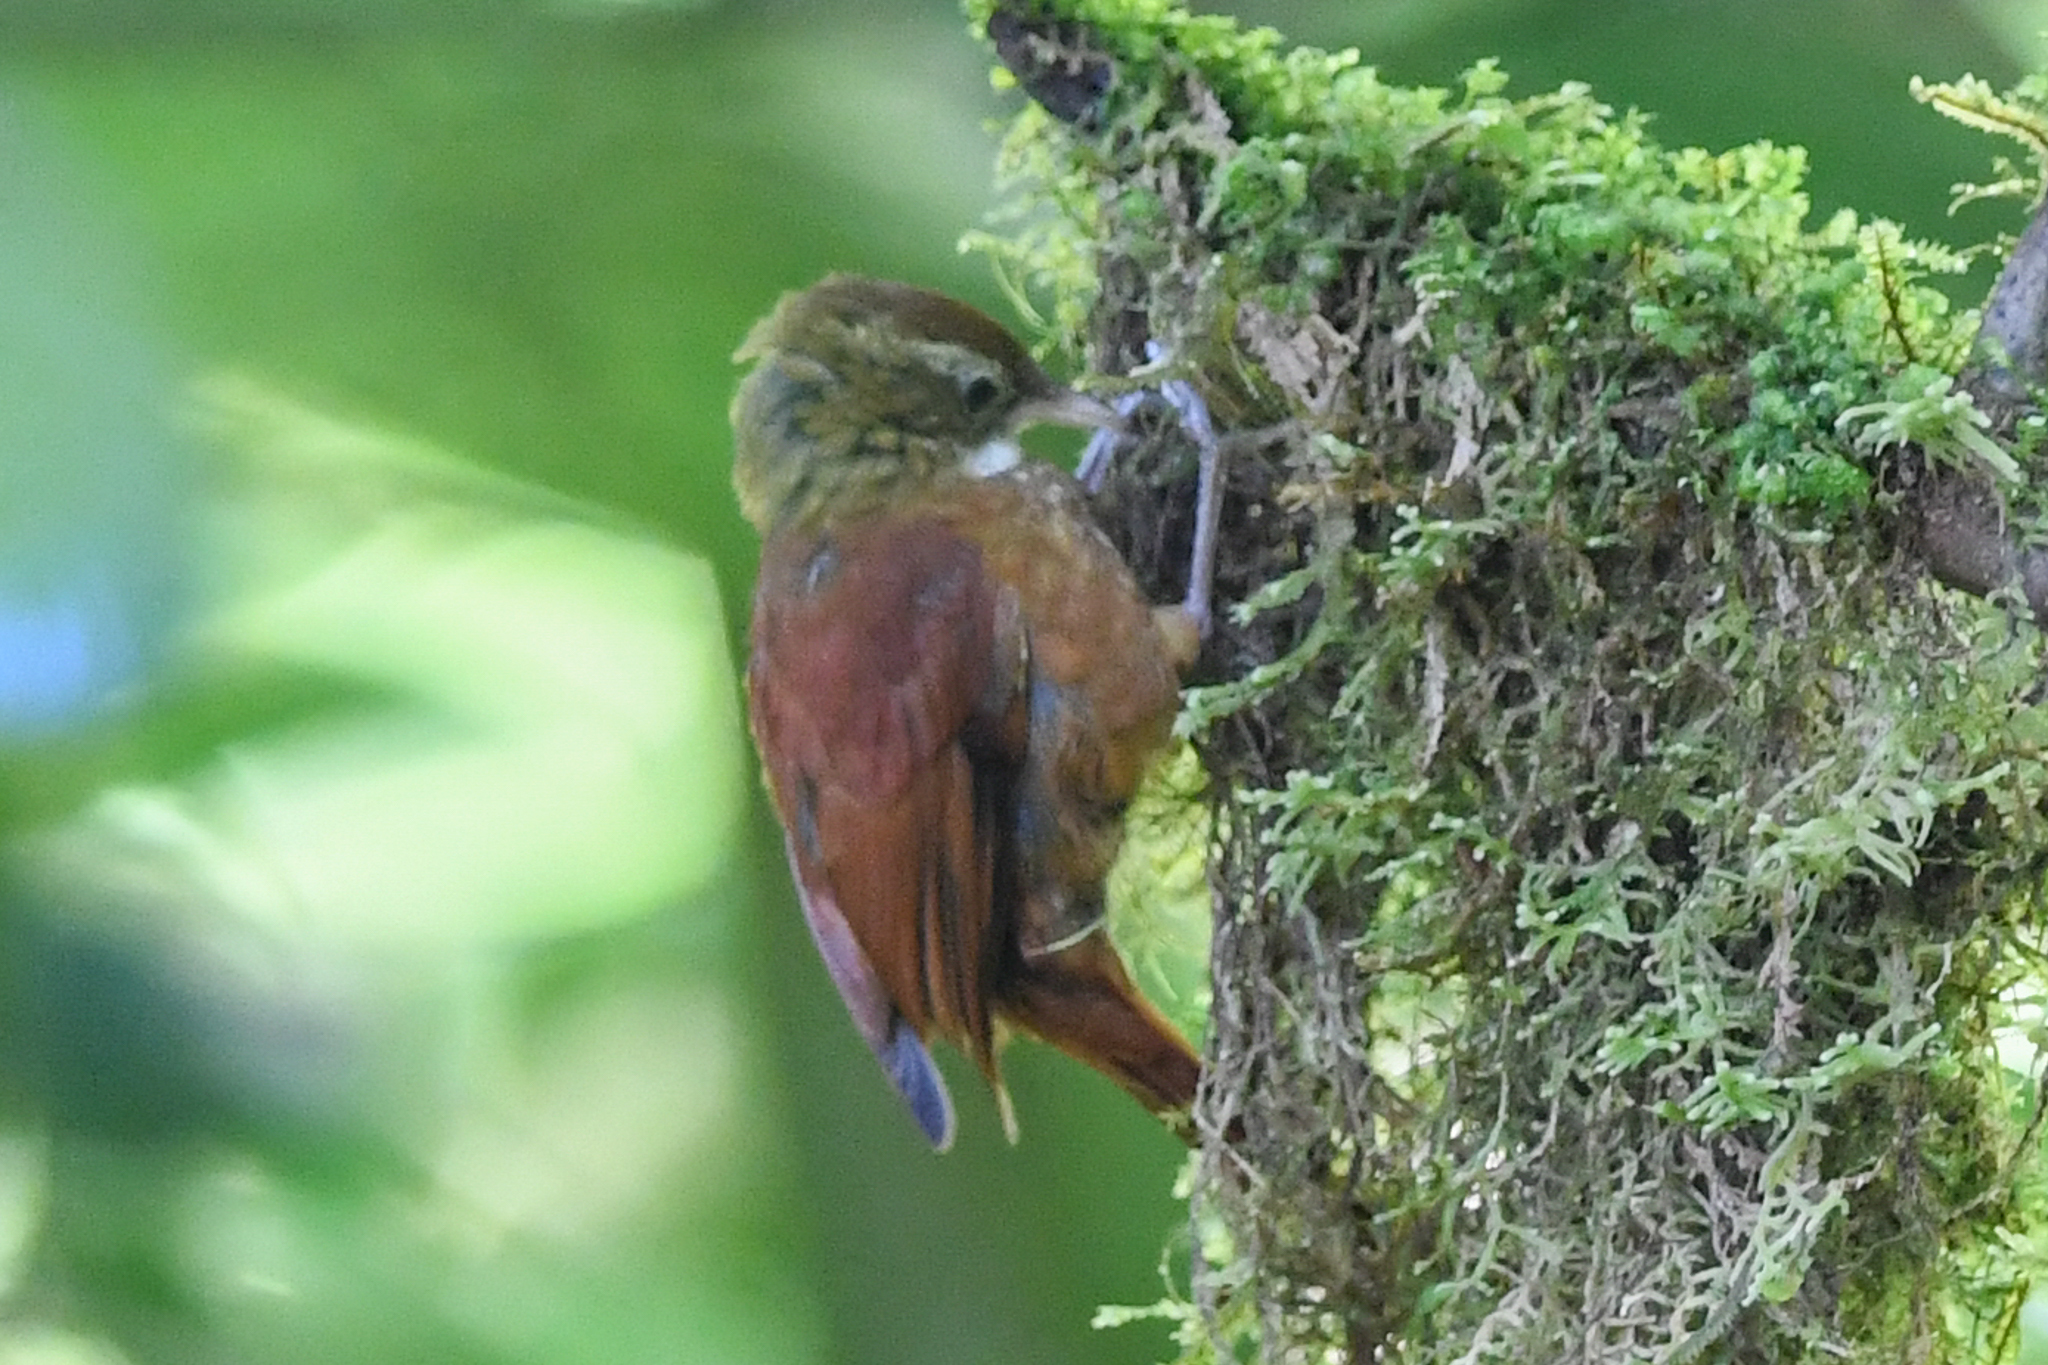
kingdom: Animalia
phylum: Chordata
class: Aves
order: Passeriformes
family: Furnariidae
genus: Margarornis
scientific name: Margarornis rubiginosus
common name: Ruddy treerunner
